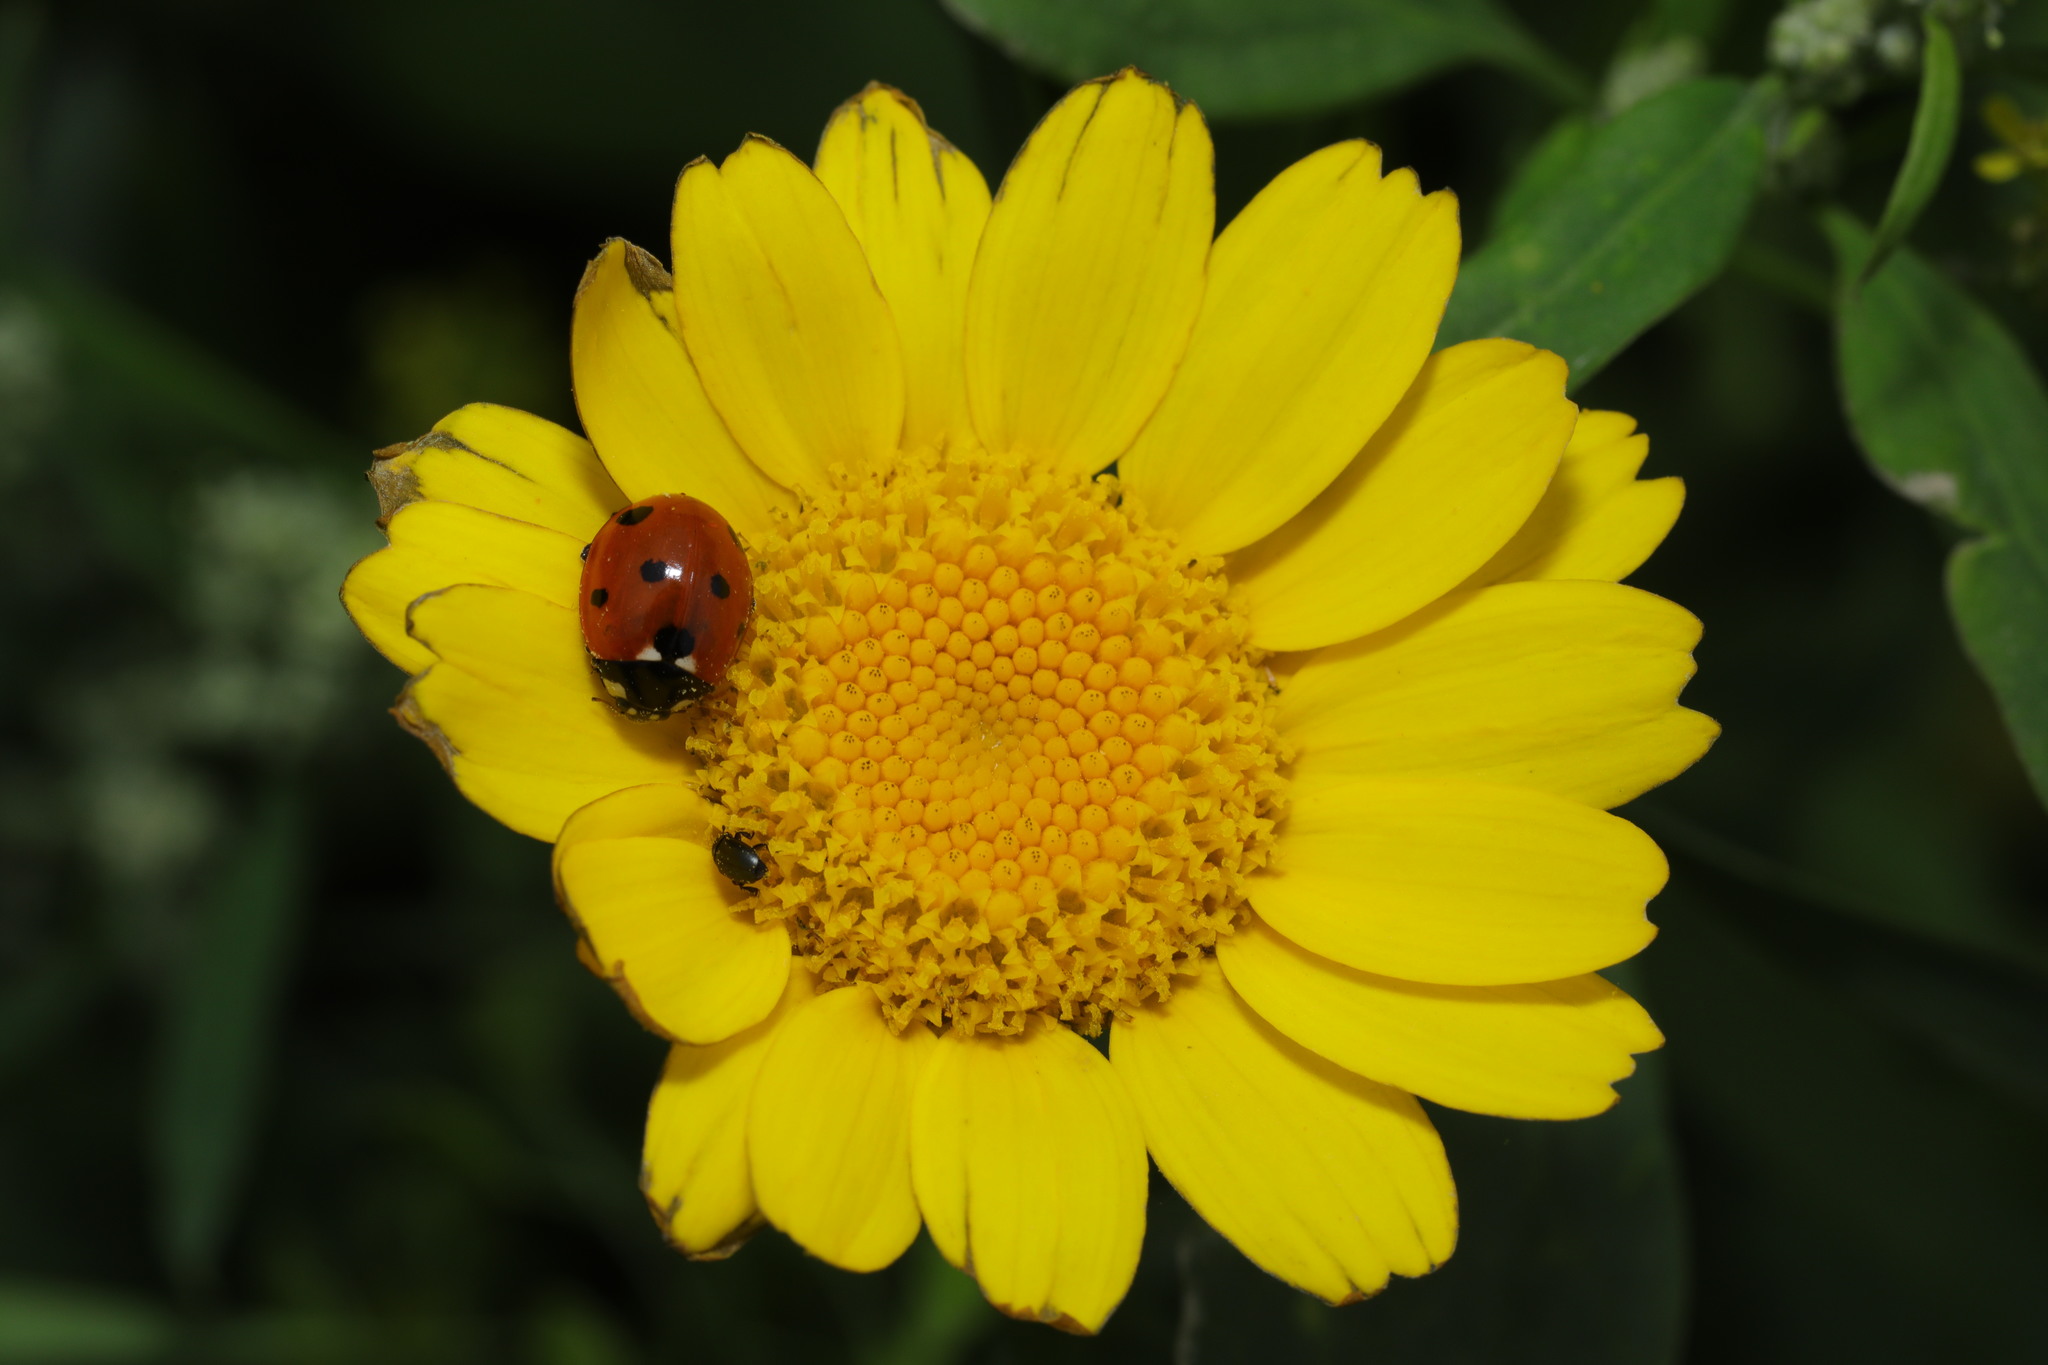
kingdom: Animalia
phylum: Arthropoda
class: Insecta
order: Coleoptera
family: Coccinellidae
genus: Coccinella
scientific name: Coccinella septempunctata
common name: Sevenspotted lady beetle
